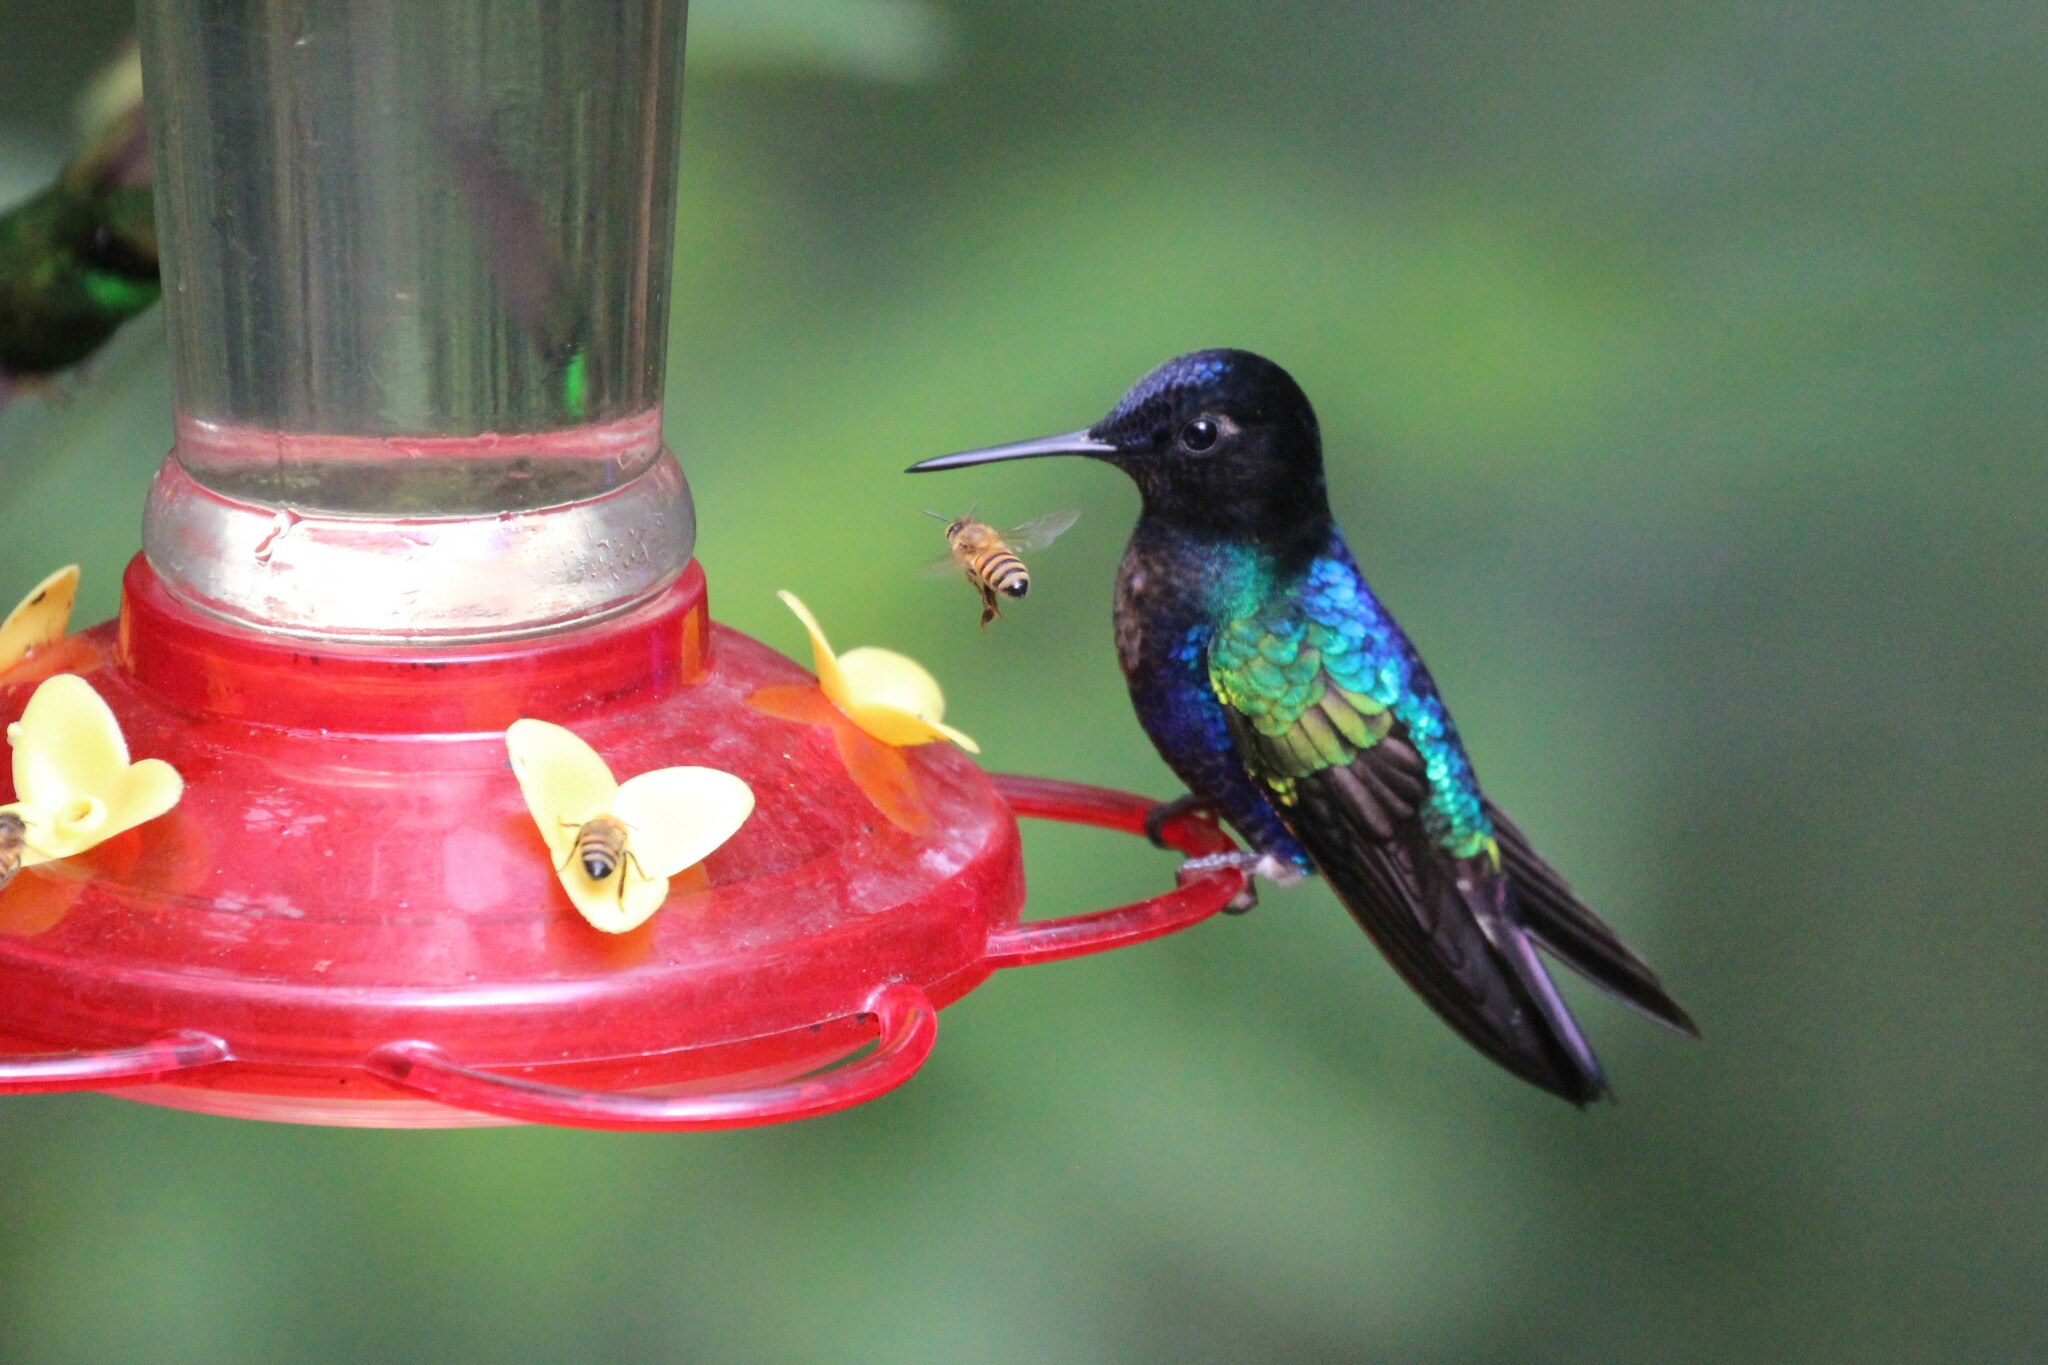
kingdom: Animalia
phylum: Chordata
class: Aves
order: Apodiformes
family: Trochilidae
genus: Boissonneaua
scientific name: Boissonneaua jardini
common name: Velvet-purple coronet
